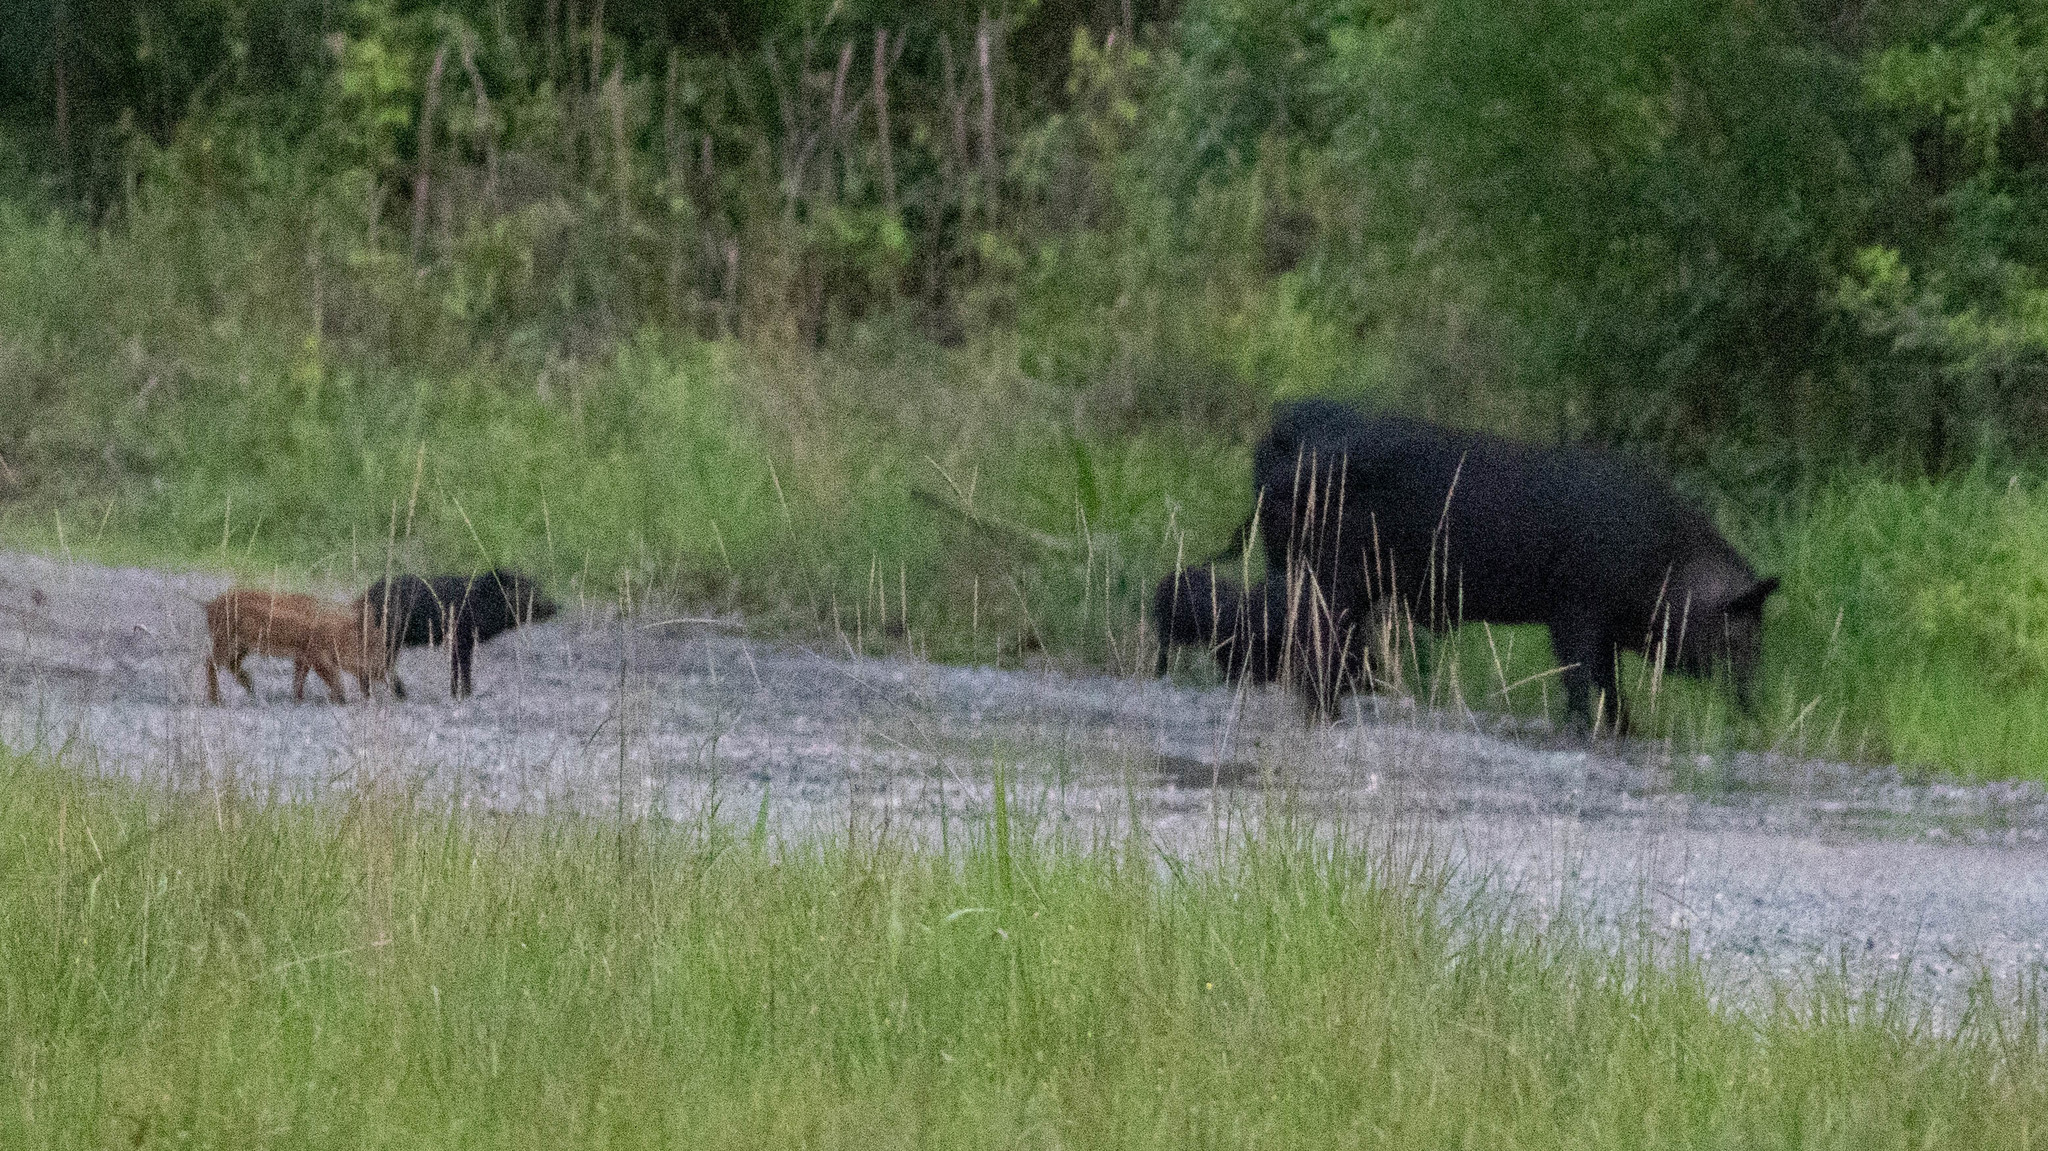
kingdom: Animalia
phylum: Chordata
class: Mammalia
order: Artiodactyla
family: Suidae
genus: Sus
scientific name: Sus scrofa
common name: Wild boar
